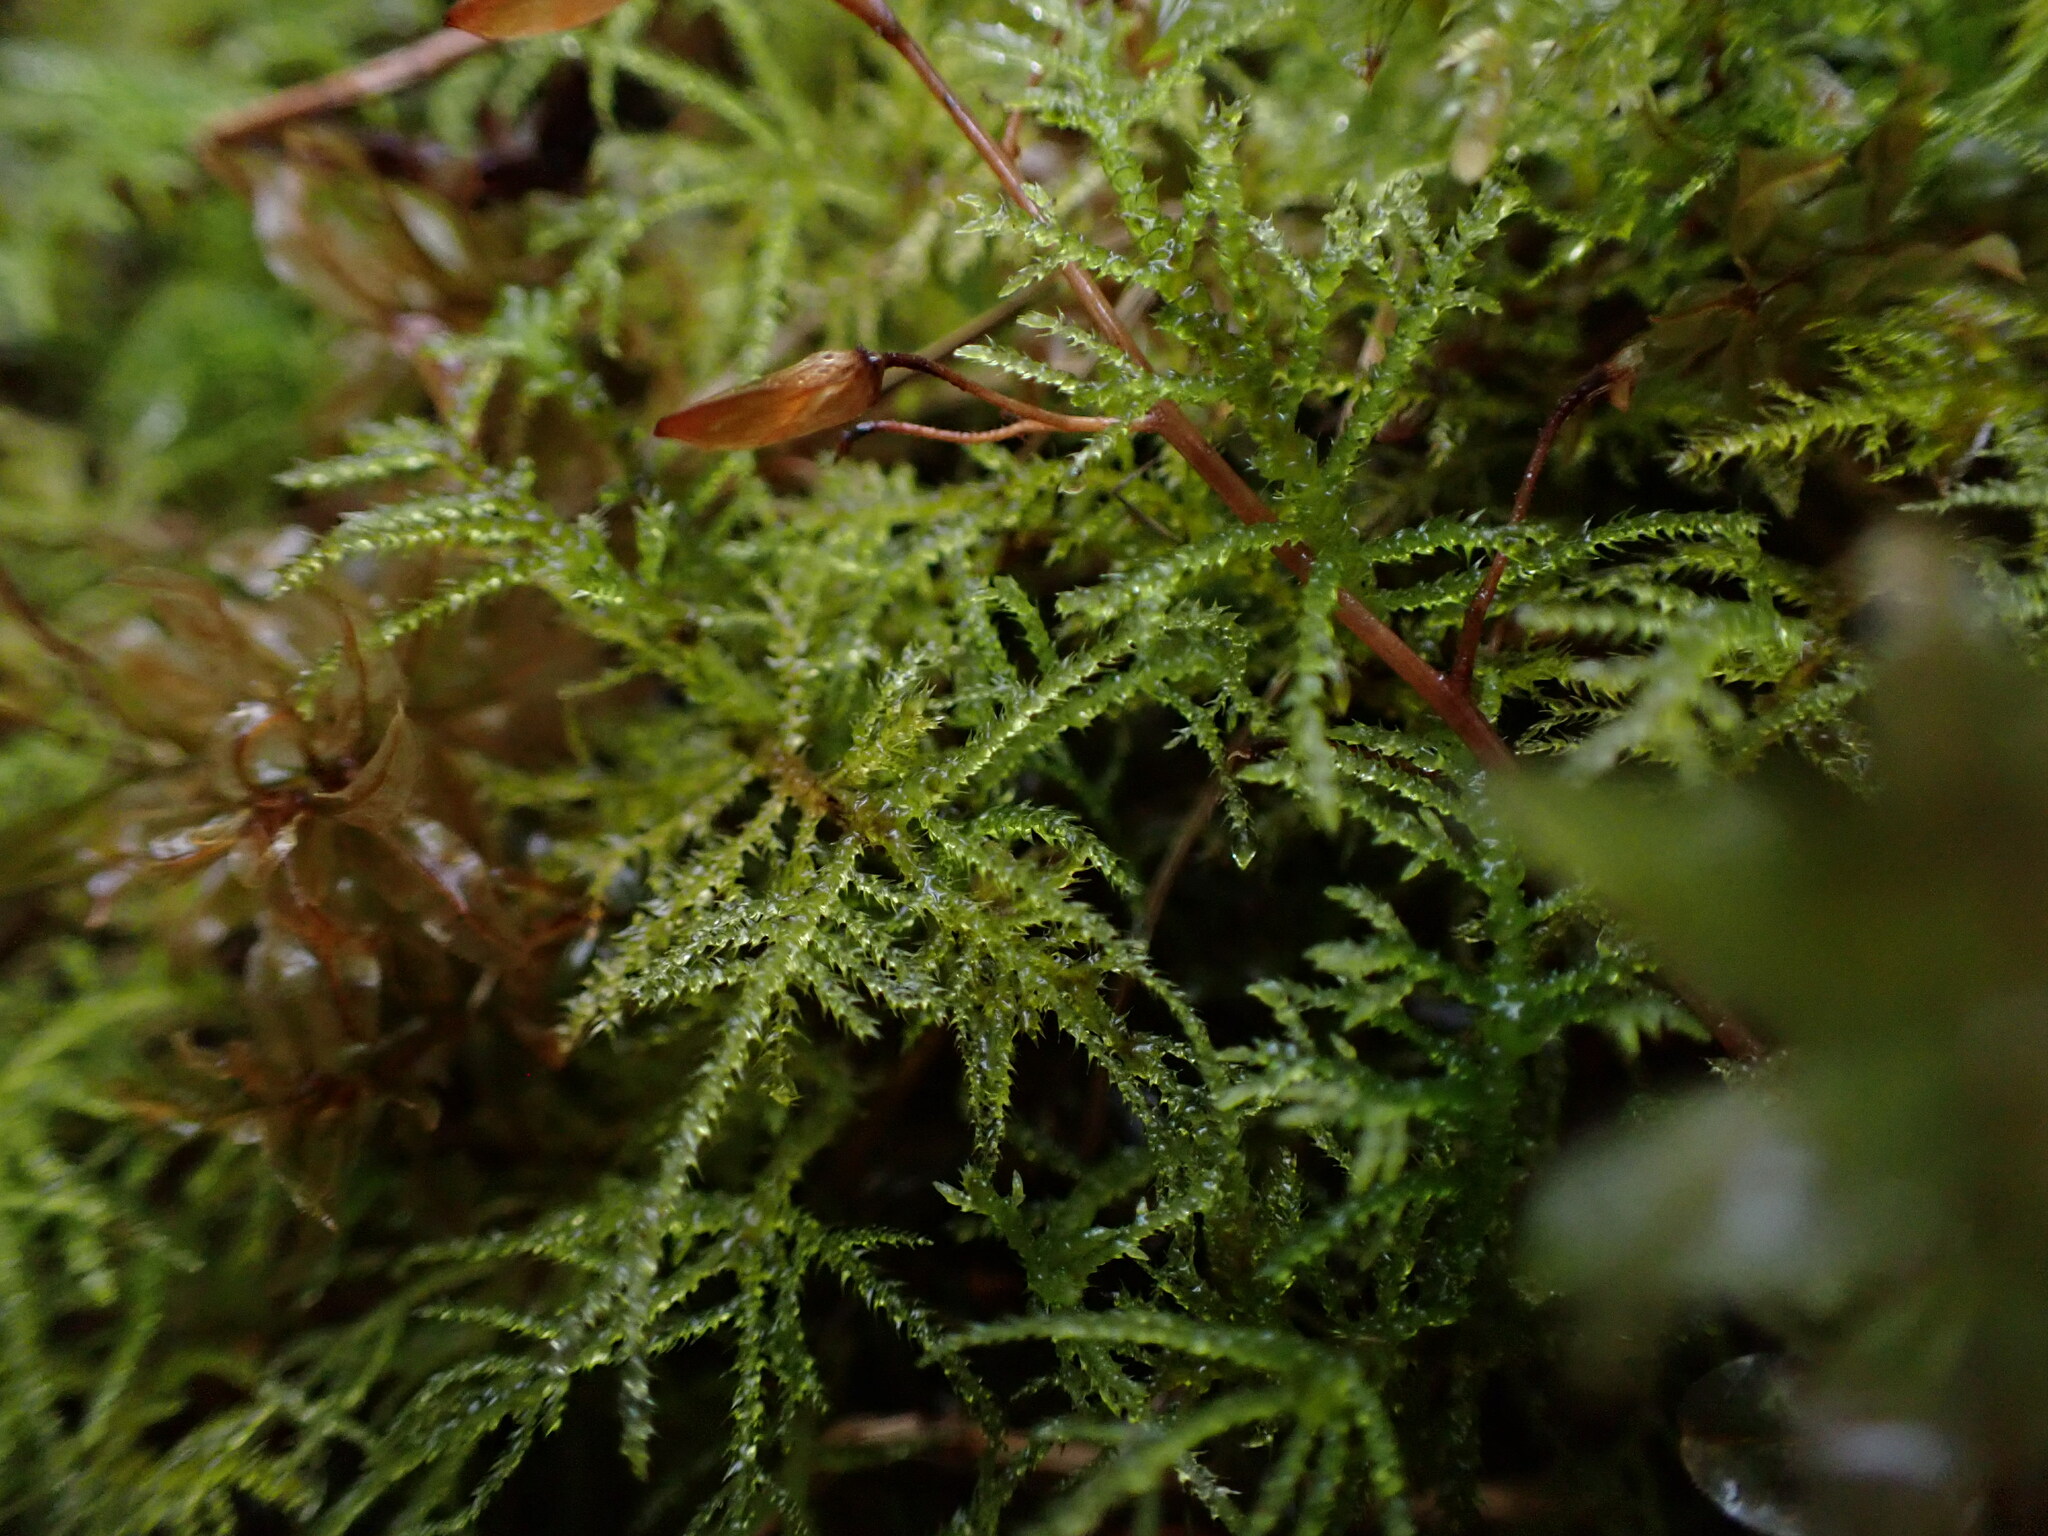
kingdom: Plantae
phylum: Bryophyta
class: Bryopsida
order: Hypnales
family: Brachytheciaceae
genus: Kindbergia
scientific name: Kindbergia praelonga
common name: Slender beaked moss
